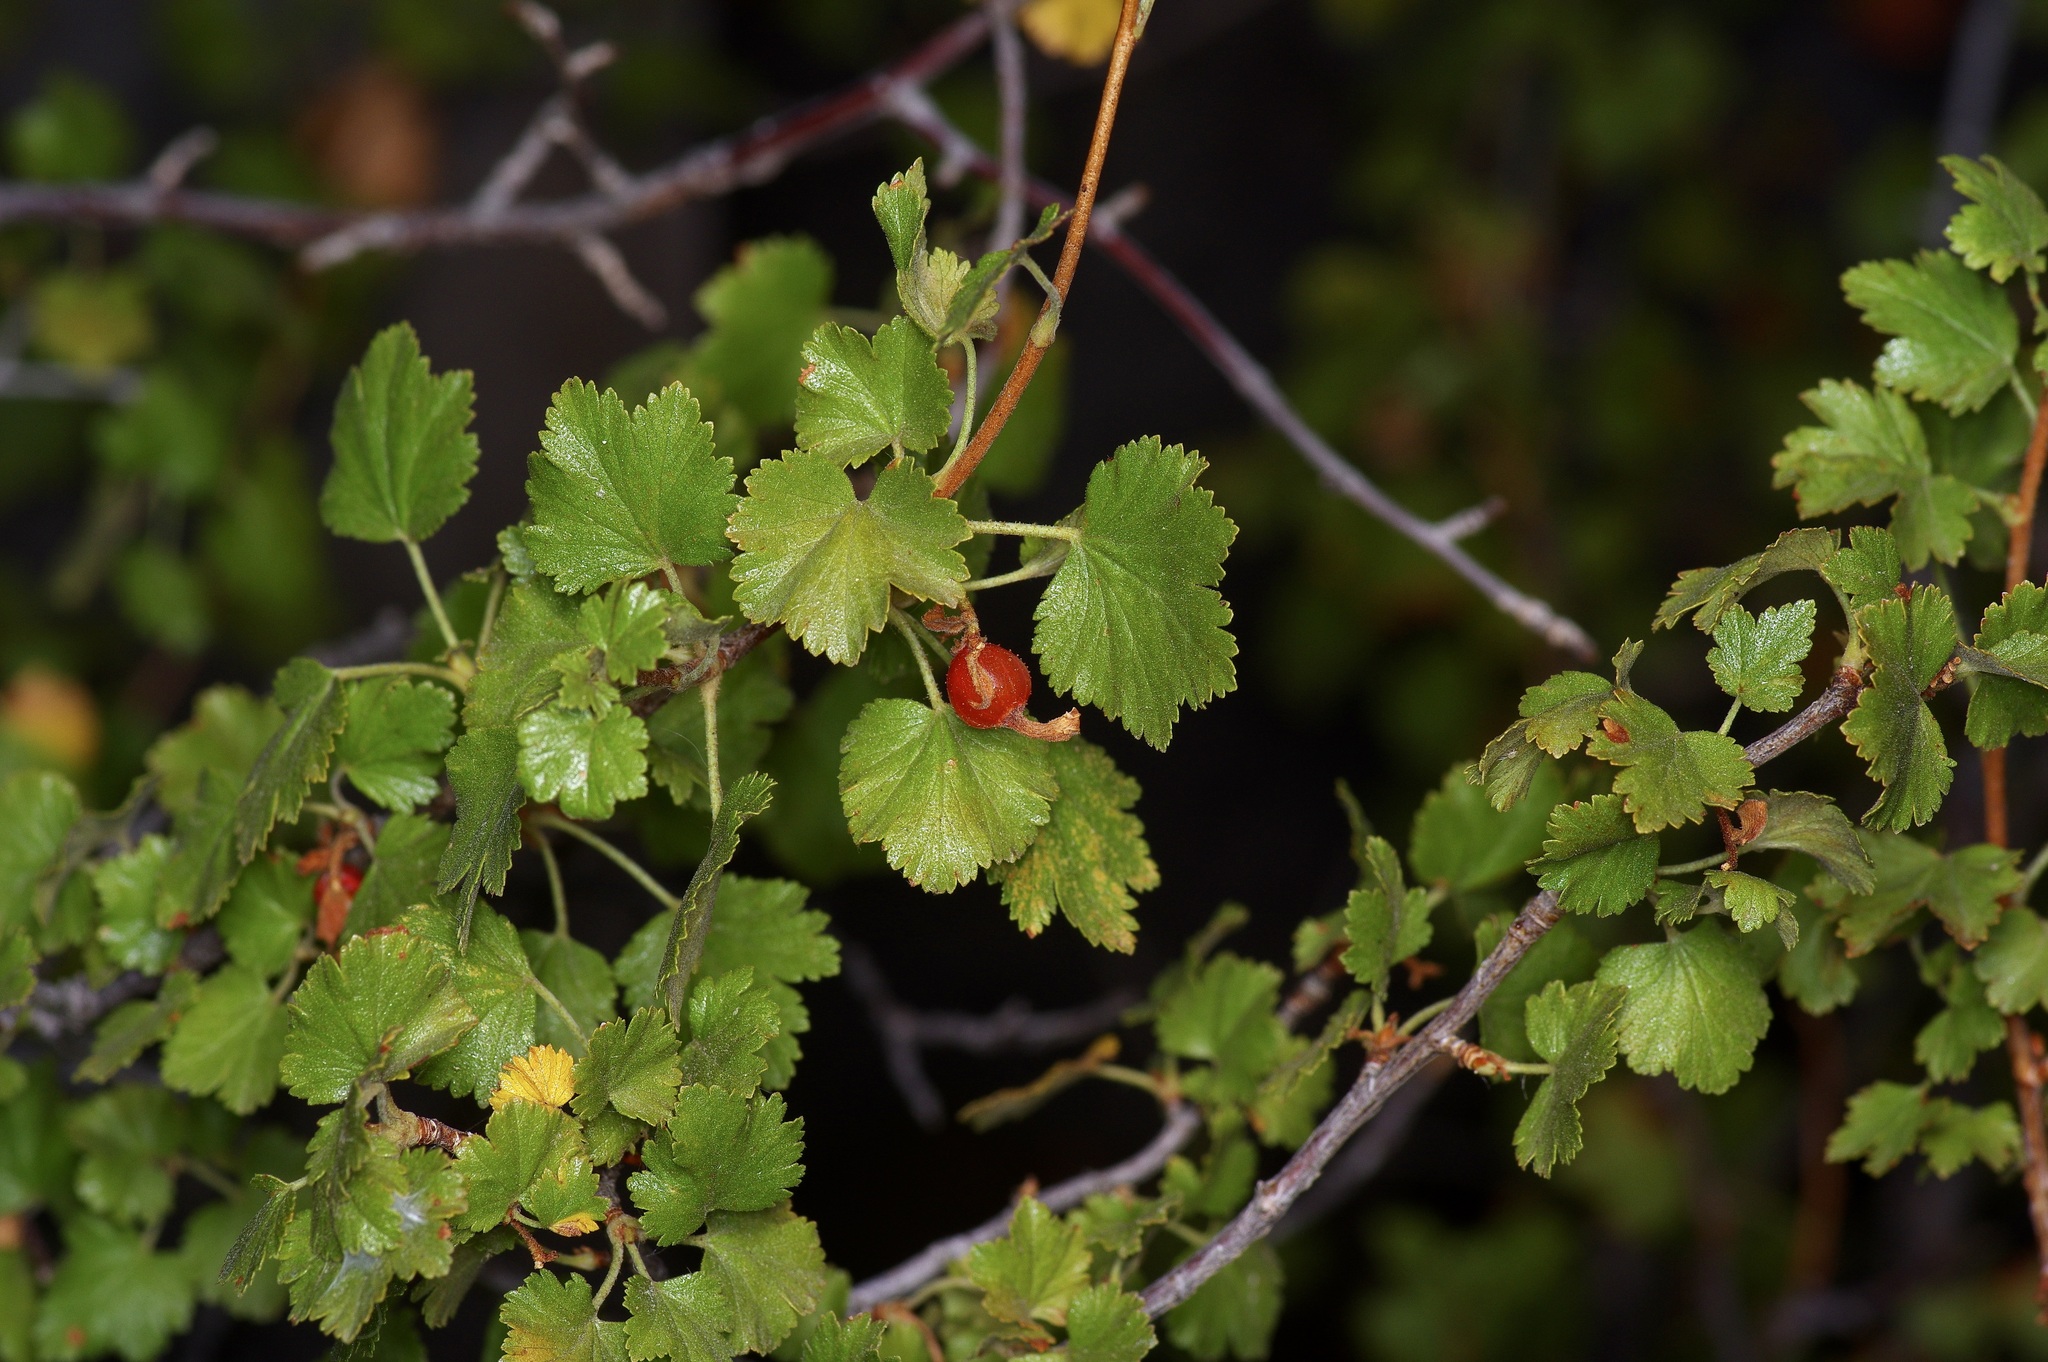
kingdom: Plantae
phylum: Tracheophyta
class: Magnoliopsida
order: Saxifragales
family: Grossulariaceae
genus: Ribes
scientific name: Ribes cereum
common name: Wax currant
